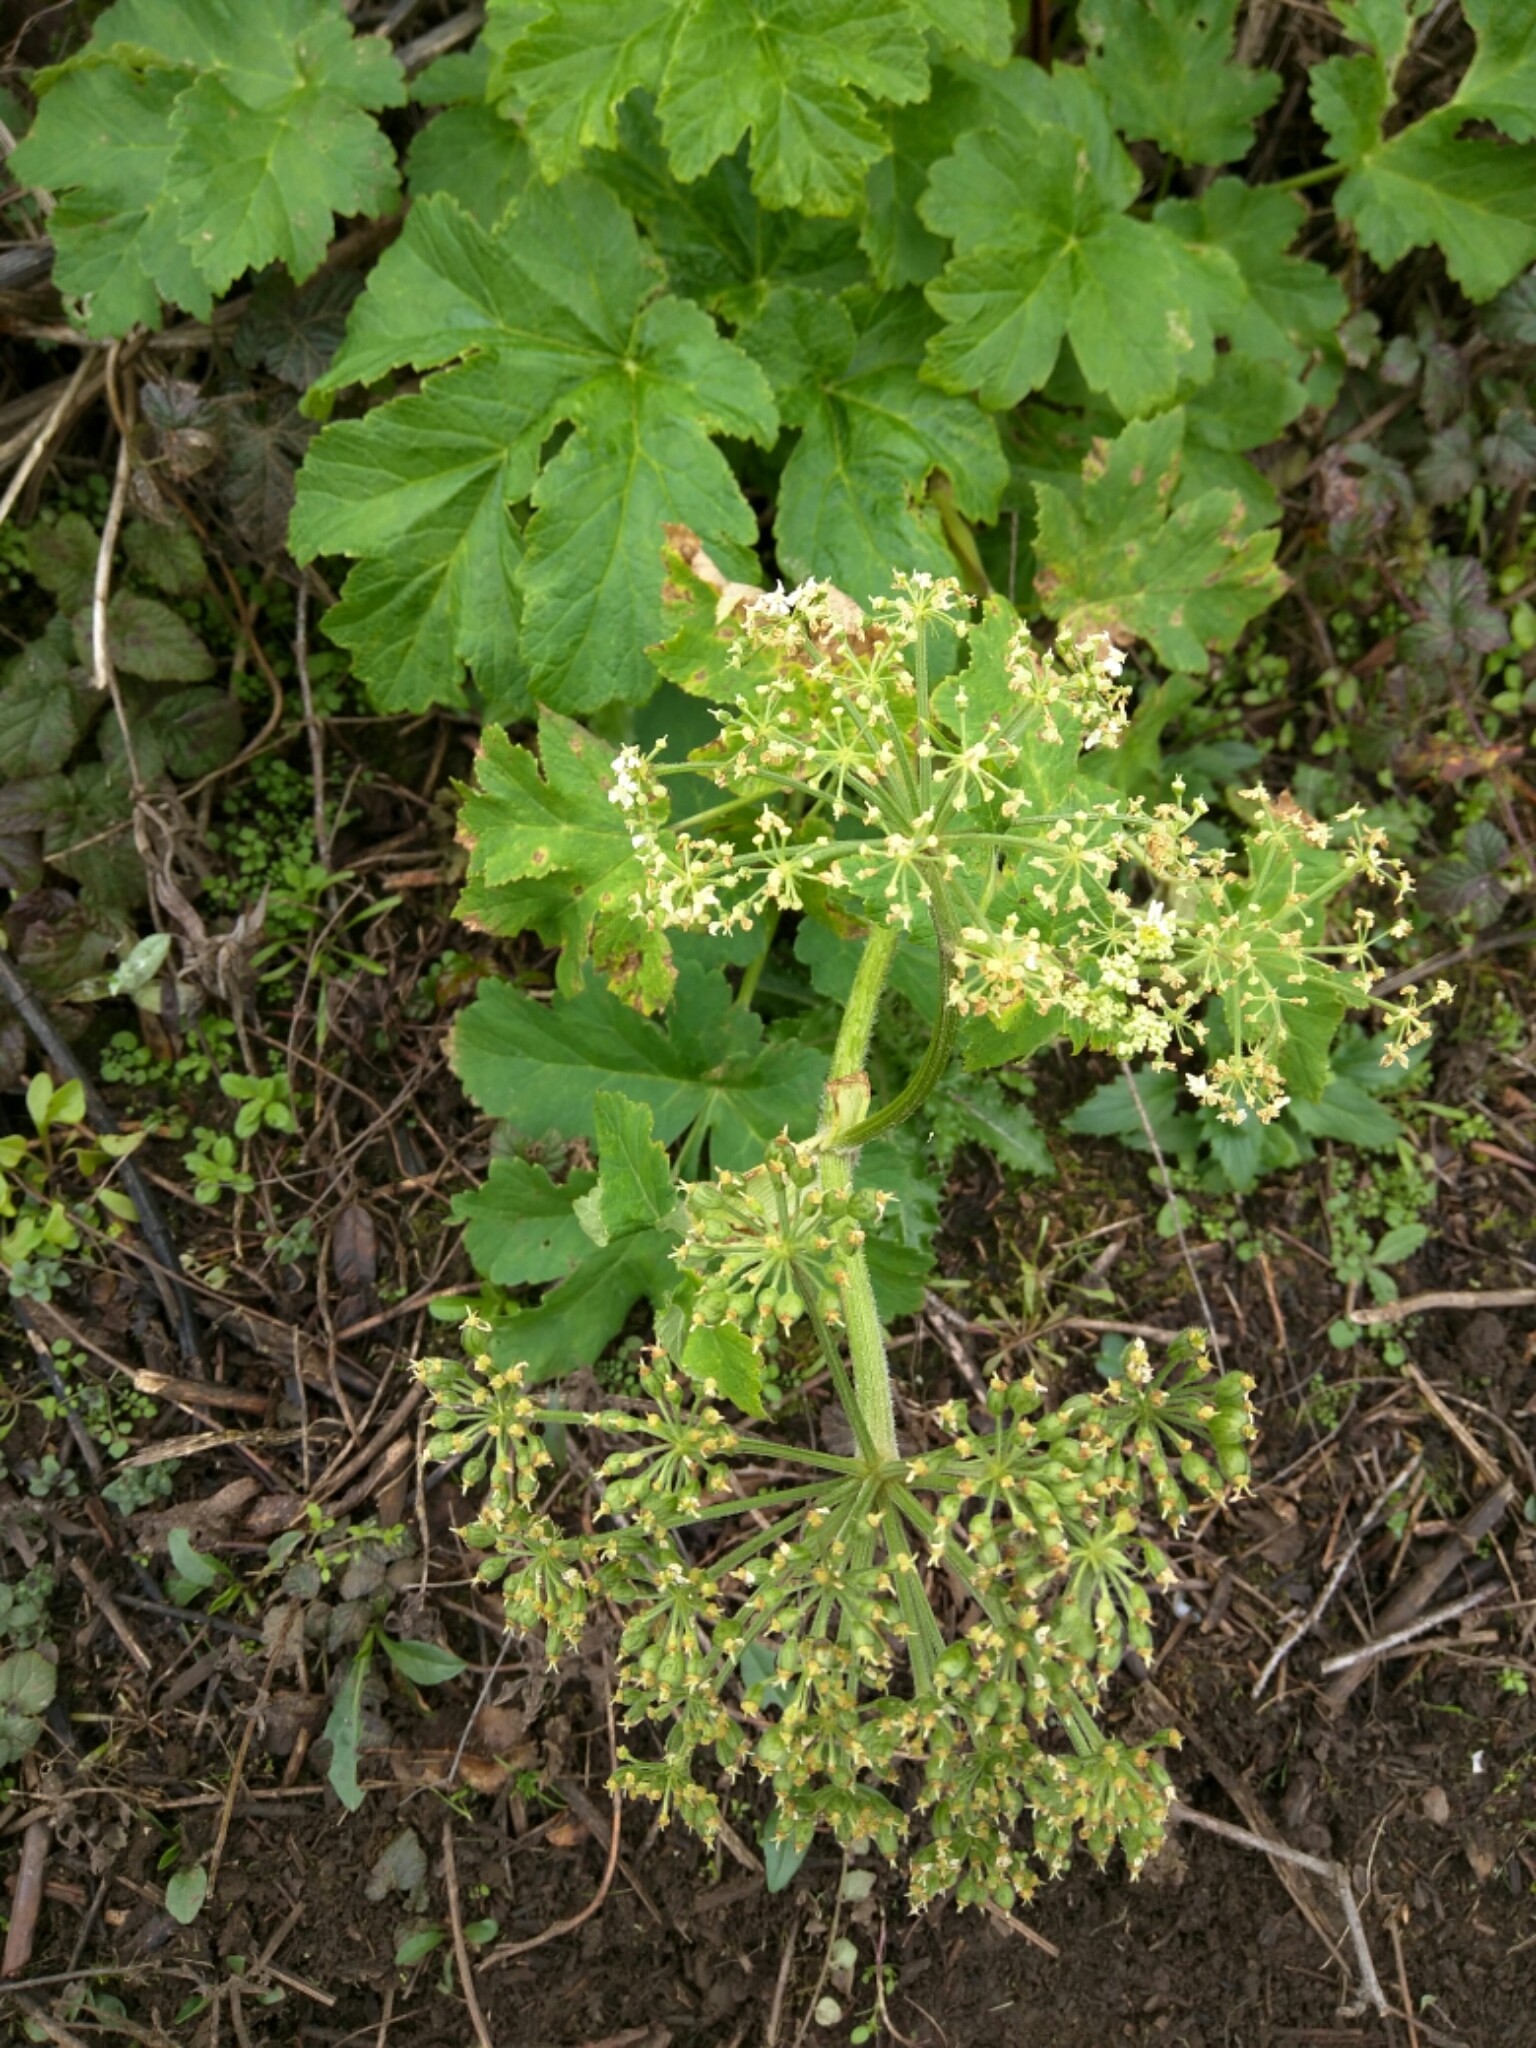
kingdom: Plantae
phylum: Tracheophyta
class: Magnoliopsida
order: Apiales
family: Apiaceae
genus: Heracleum
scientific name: Heracleum maximum
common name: American cow parsnip
